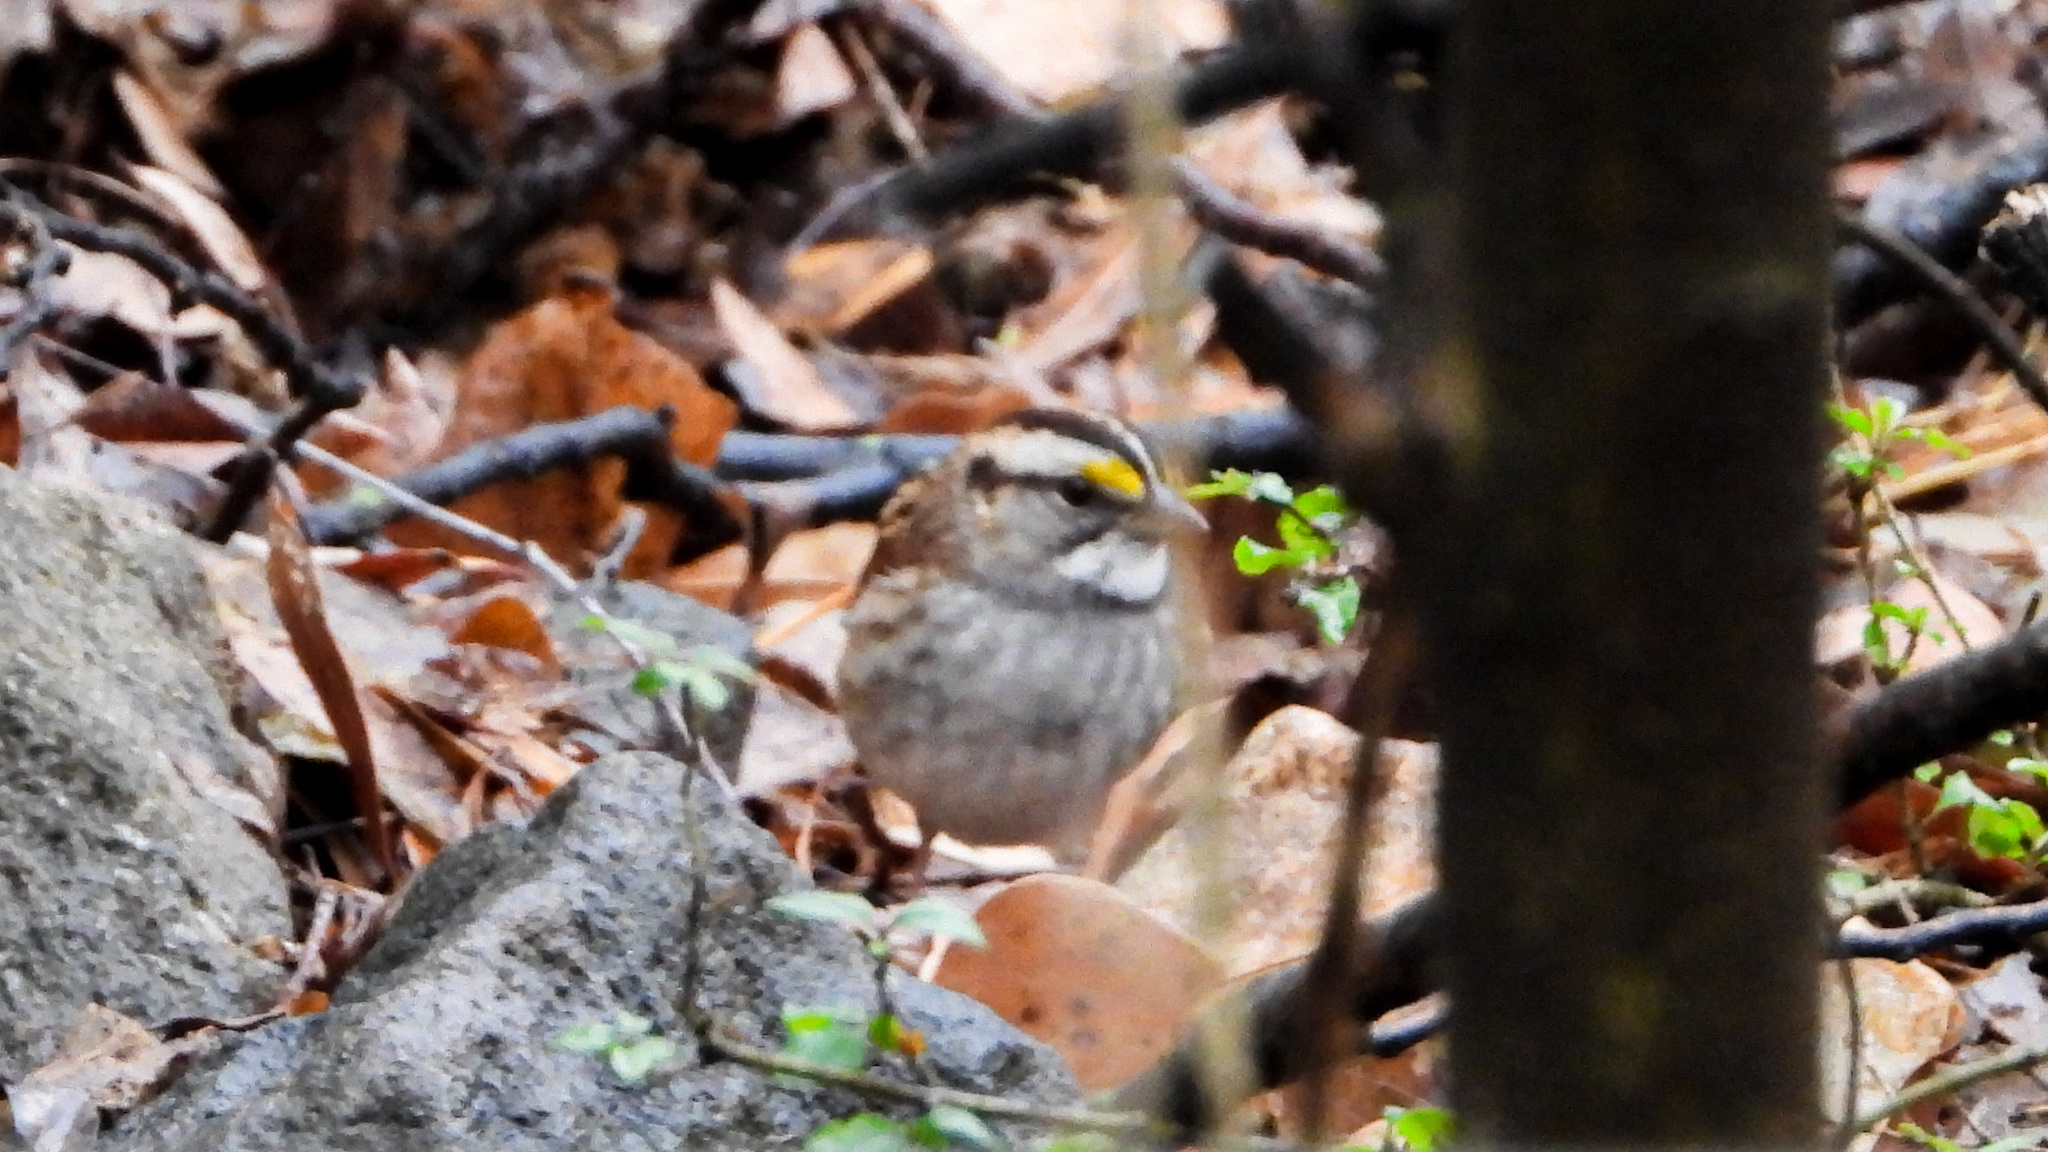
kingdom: Animalia
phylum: Chordata
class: Aves
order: Passeriformes
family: Passerellidae
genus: Zonotrichia
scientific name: Zonotrichia albicollis
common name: White-throated sparrow
